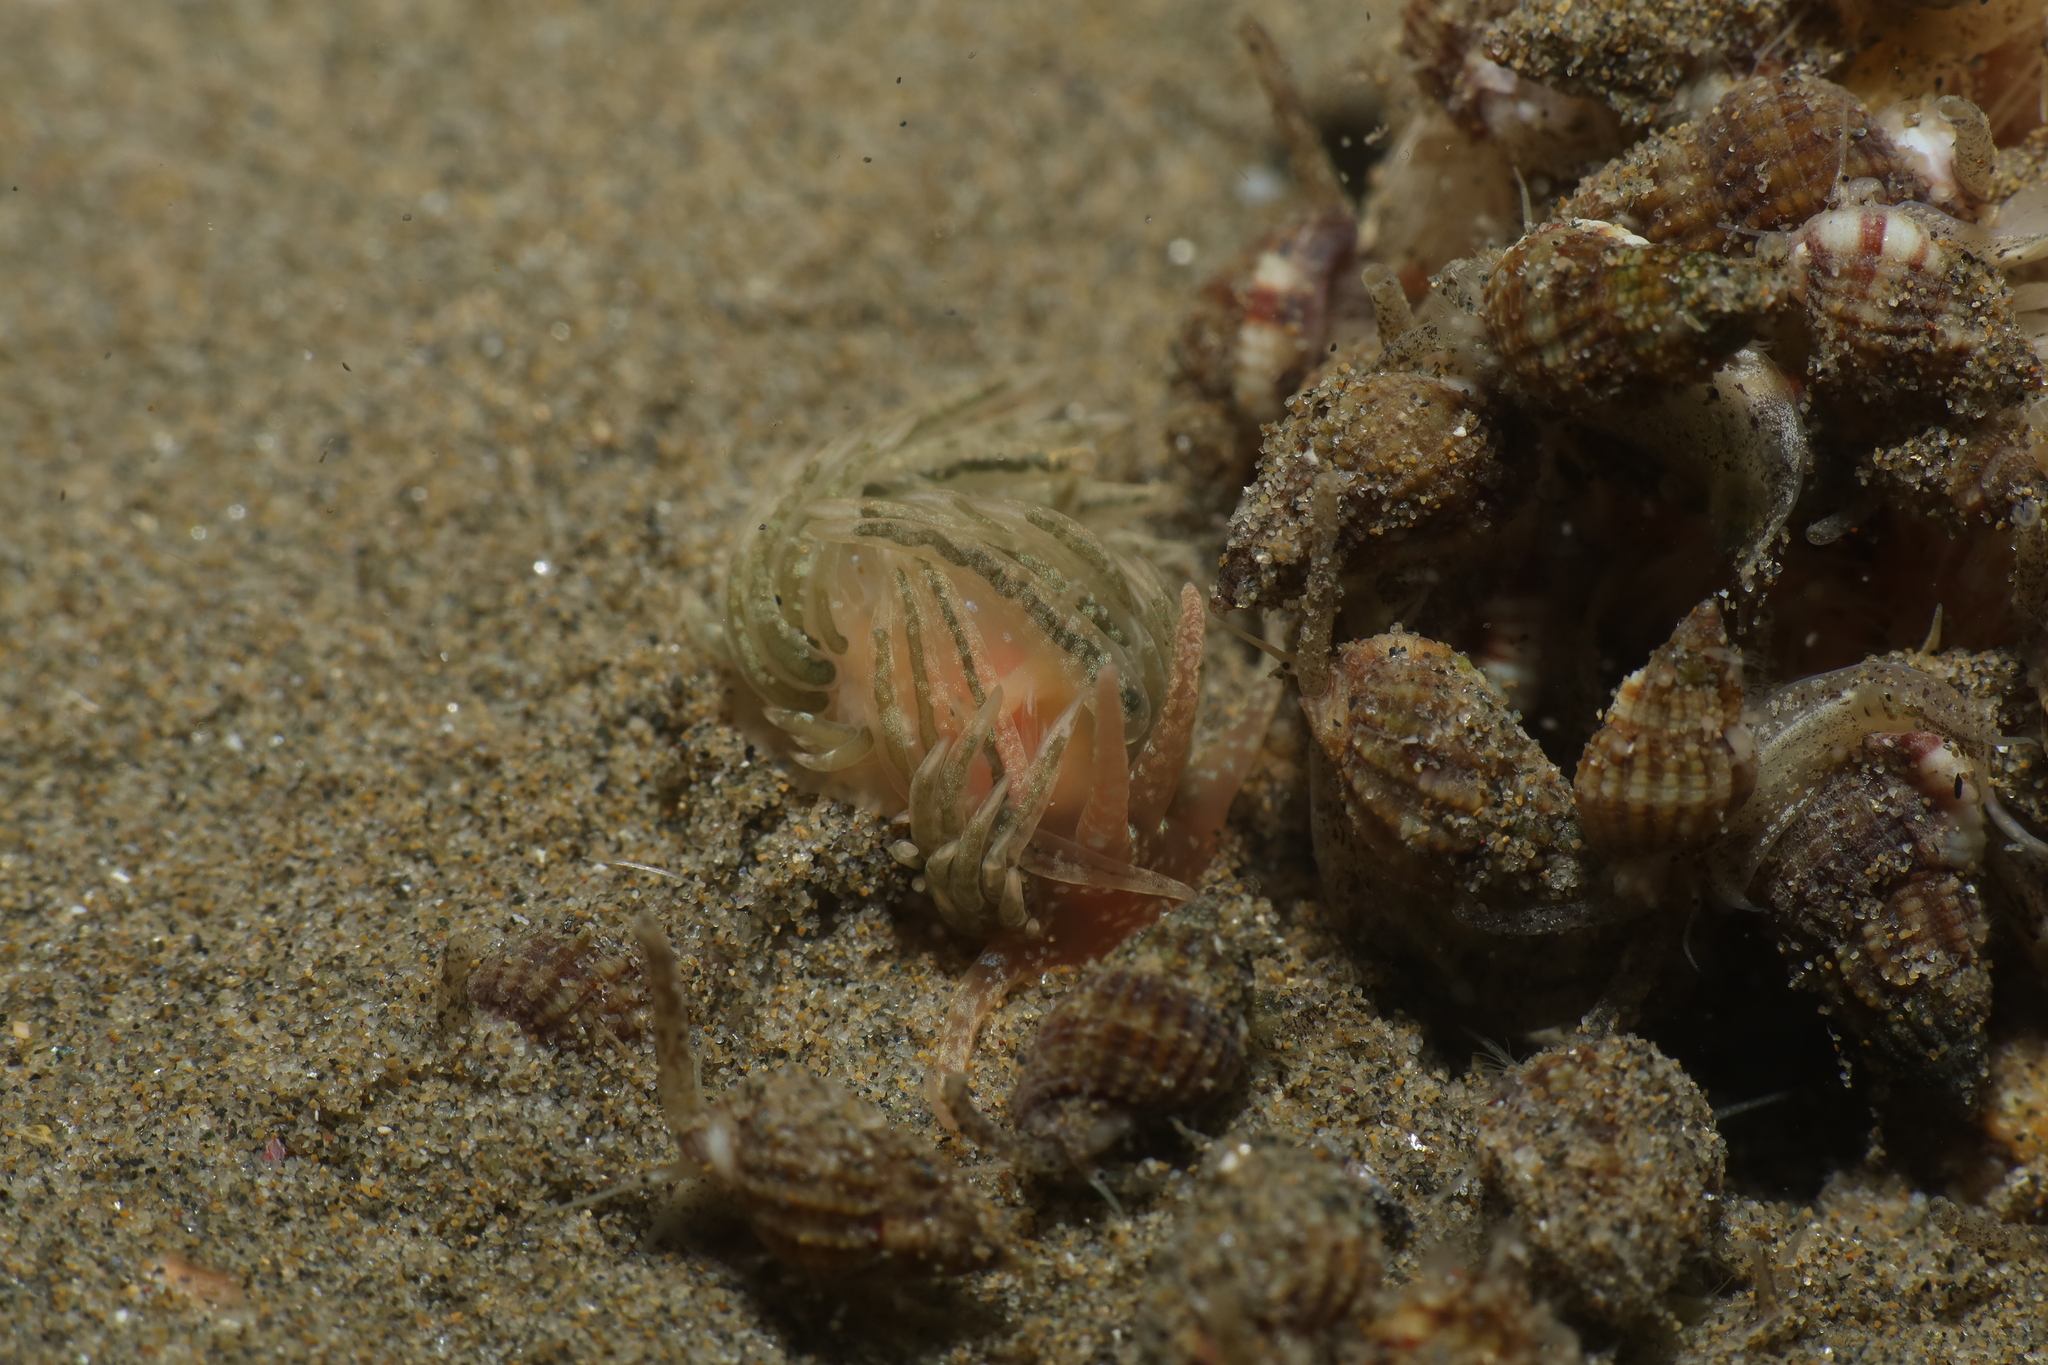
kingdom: Animalia
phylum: Mollusca
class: Gastropoda
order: Nudibranchia
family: Facelinidae
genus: Facelina
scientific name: Facelina dubia
